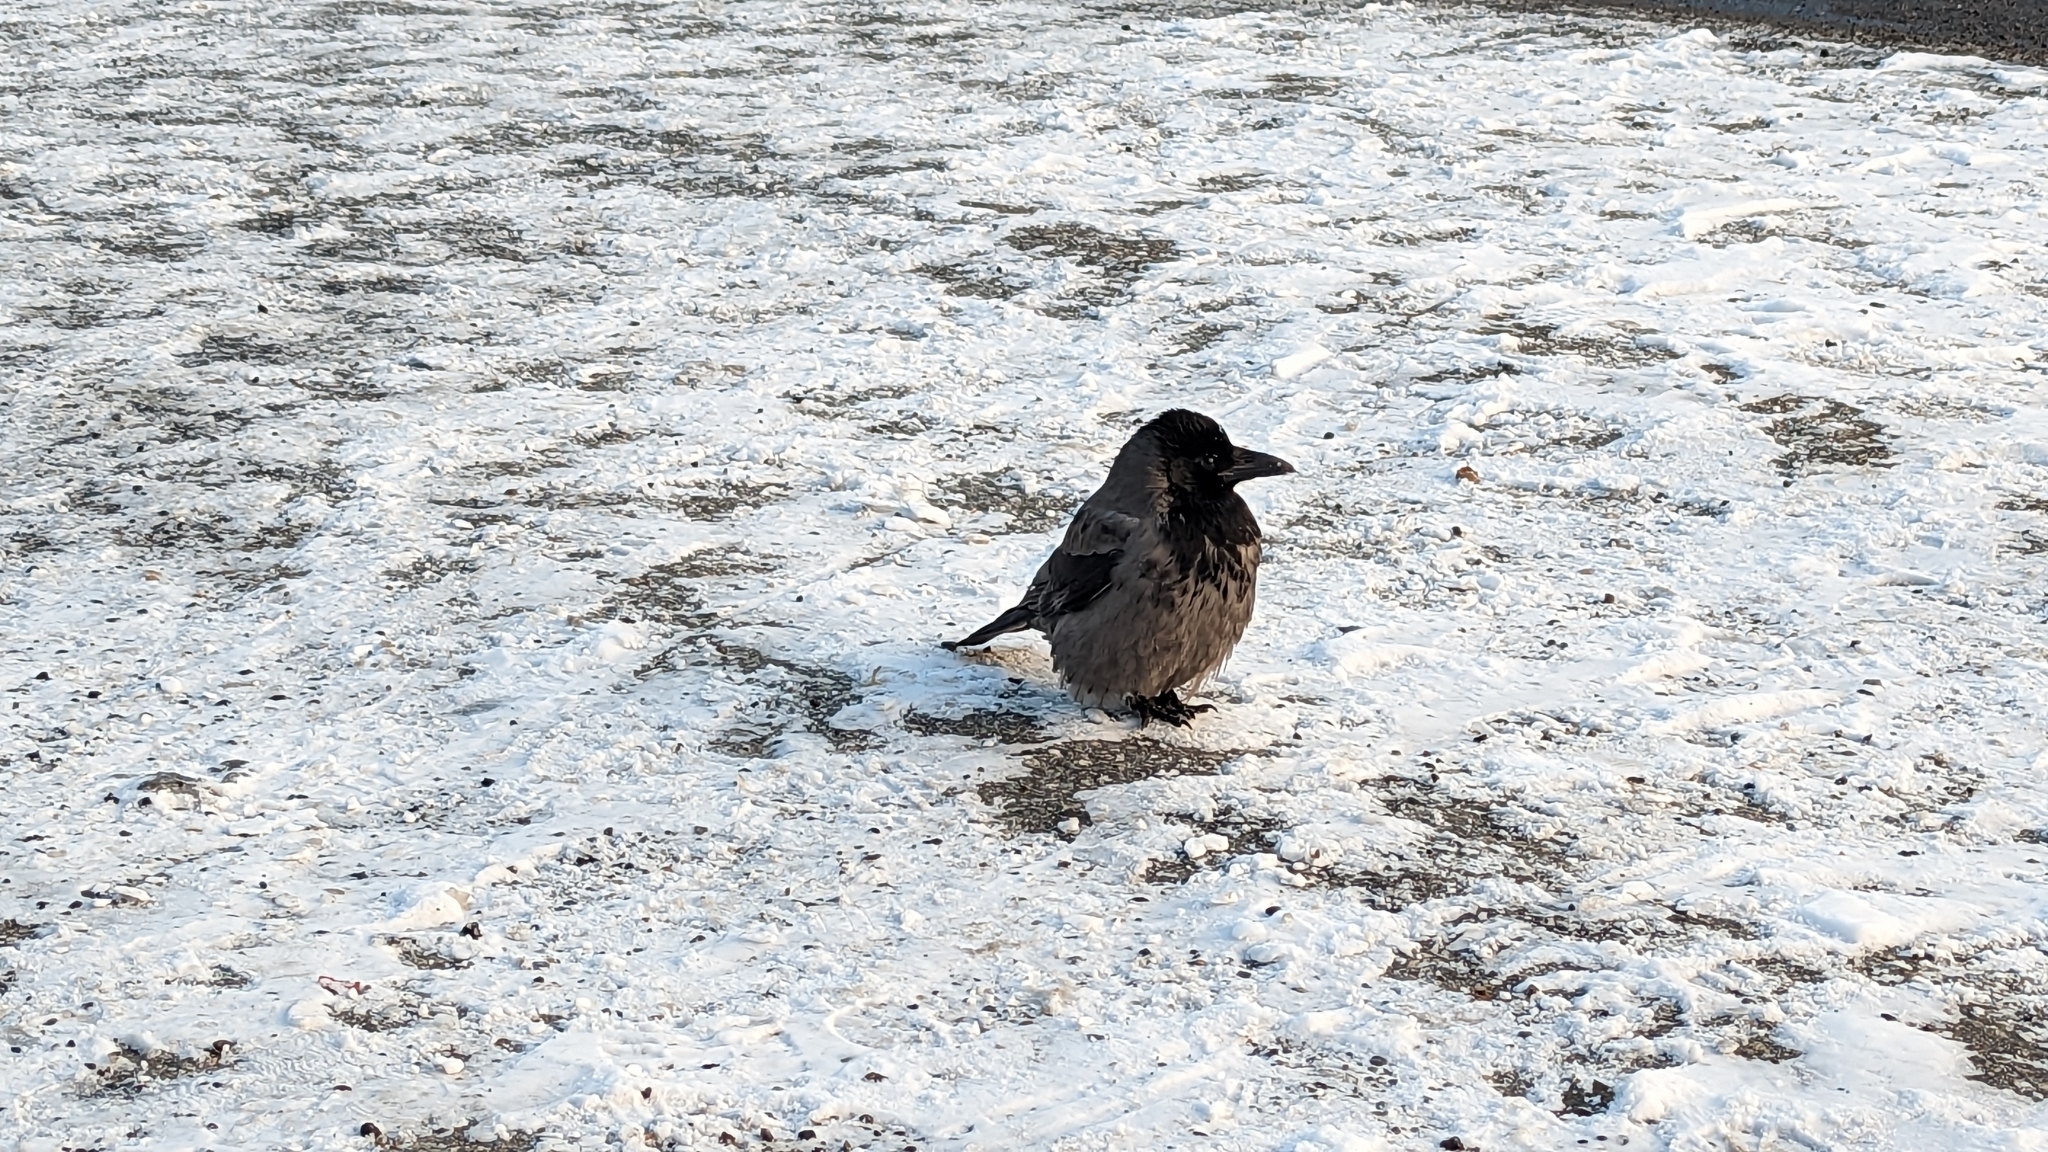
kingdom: Animalia
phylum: Chordata
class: Aves
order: Passeriformes
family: Corvidae
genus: Corvus
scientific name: Corvus cornix
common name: Hooded crow
